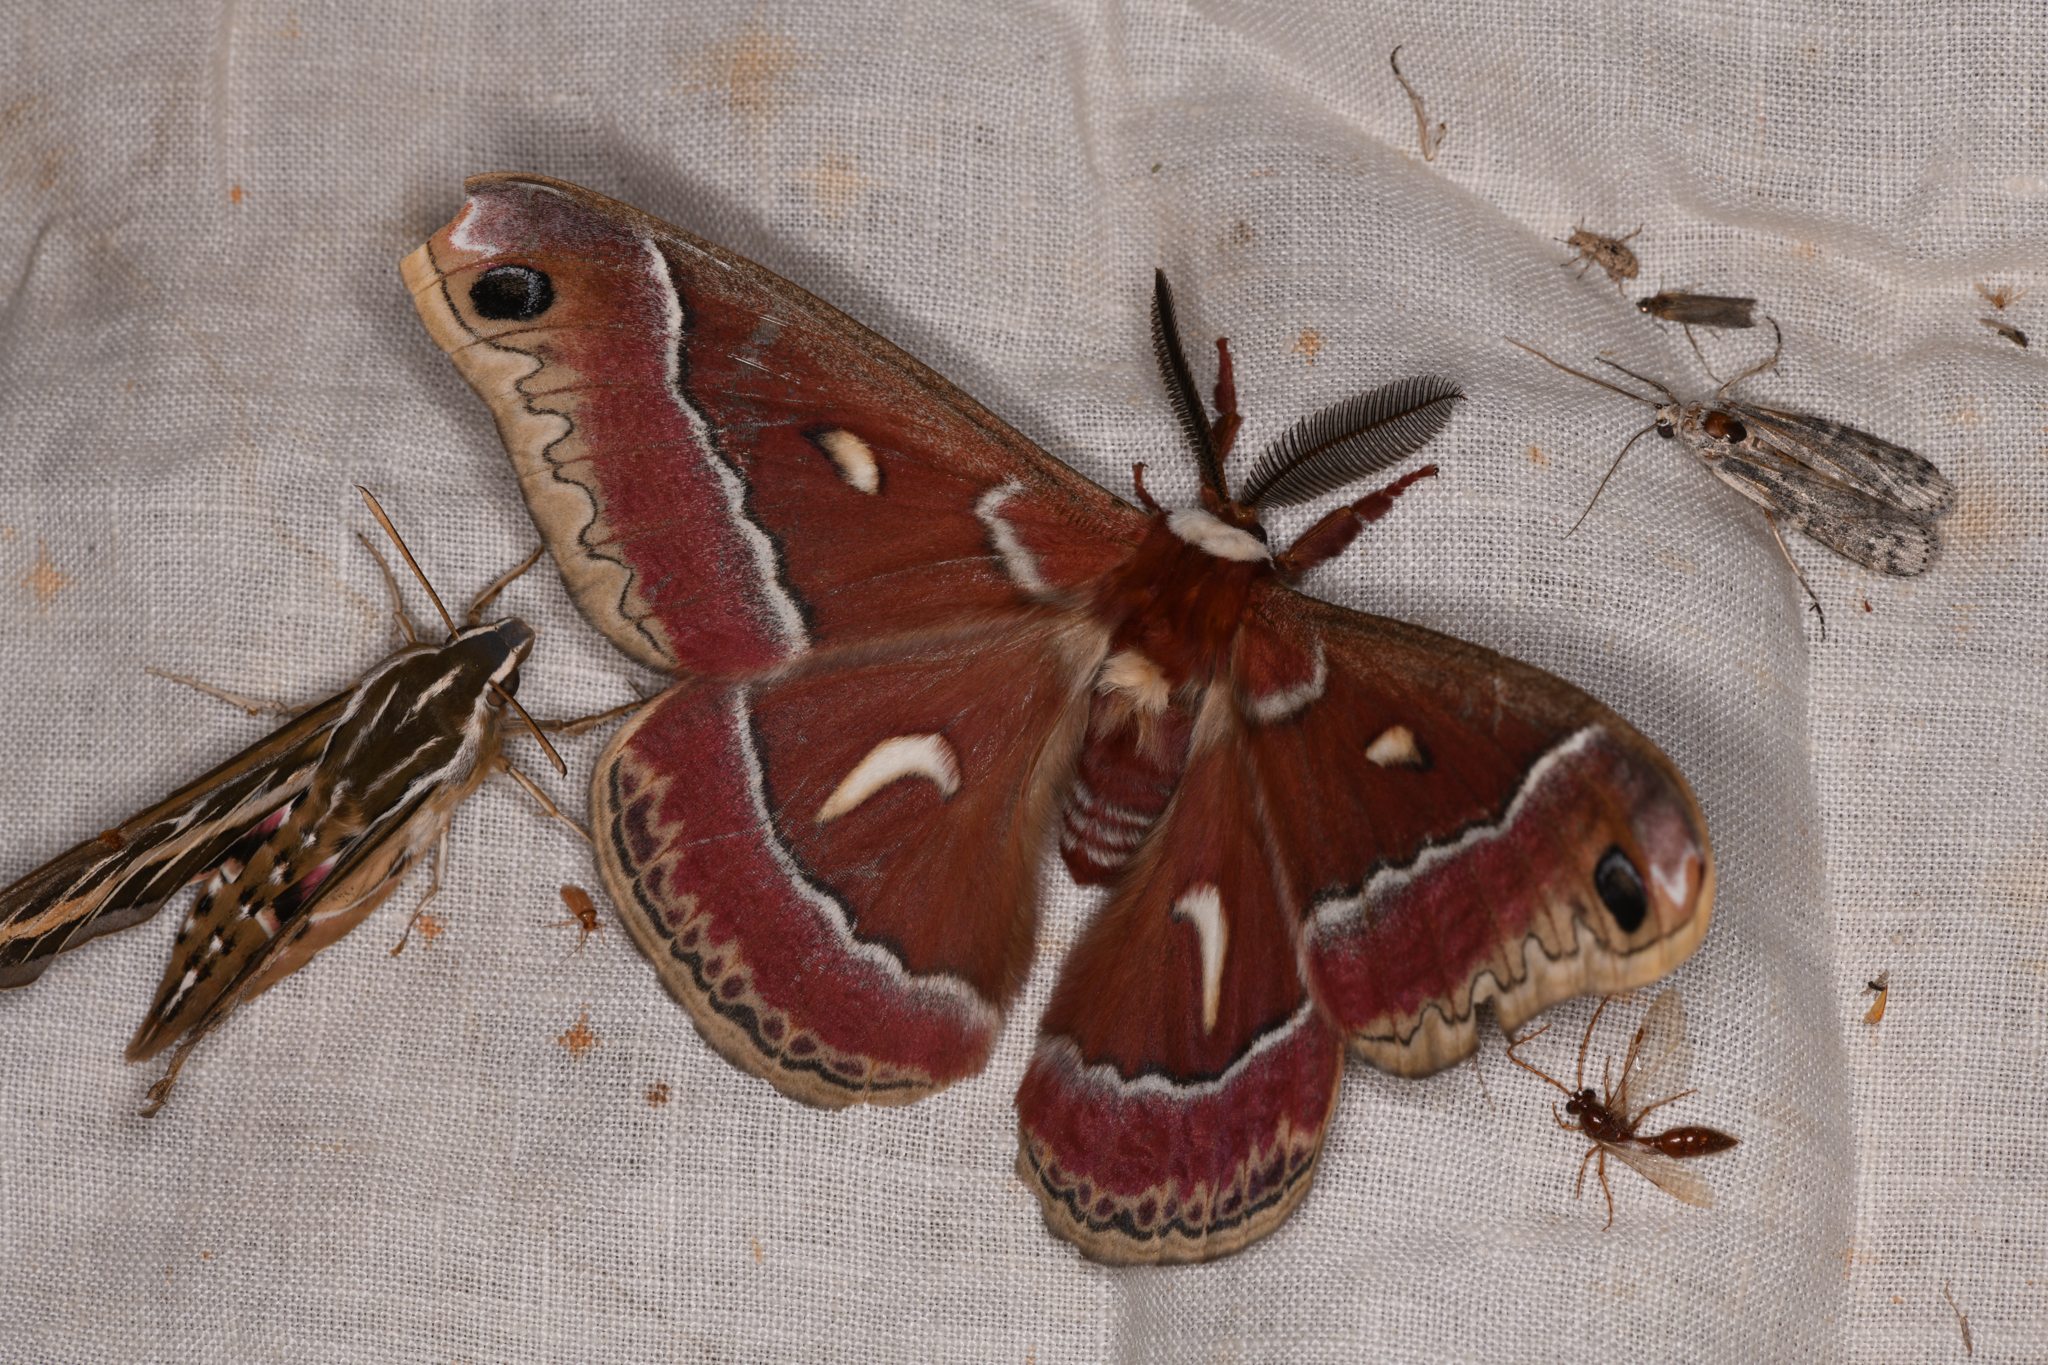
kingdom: Animalia
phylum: Arthropoda
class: Insecta
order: Lepidoptera
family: Saturniidae
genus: Hyalophora
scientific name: Hyalophora euryalus
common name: Ceanothus silkmoth
